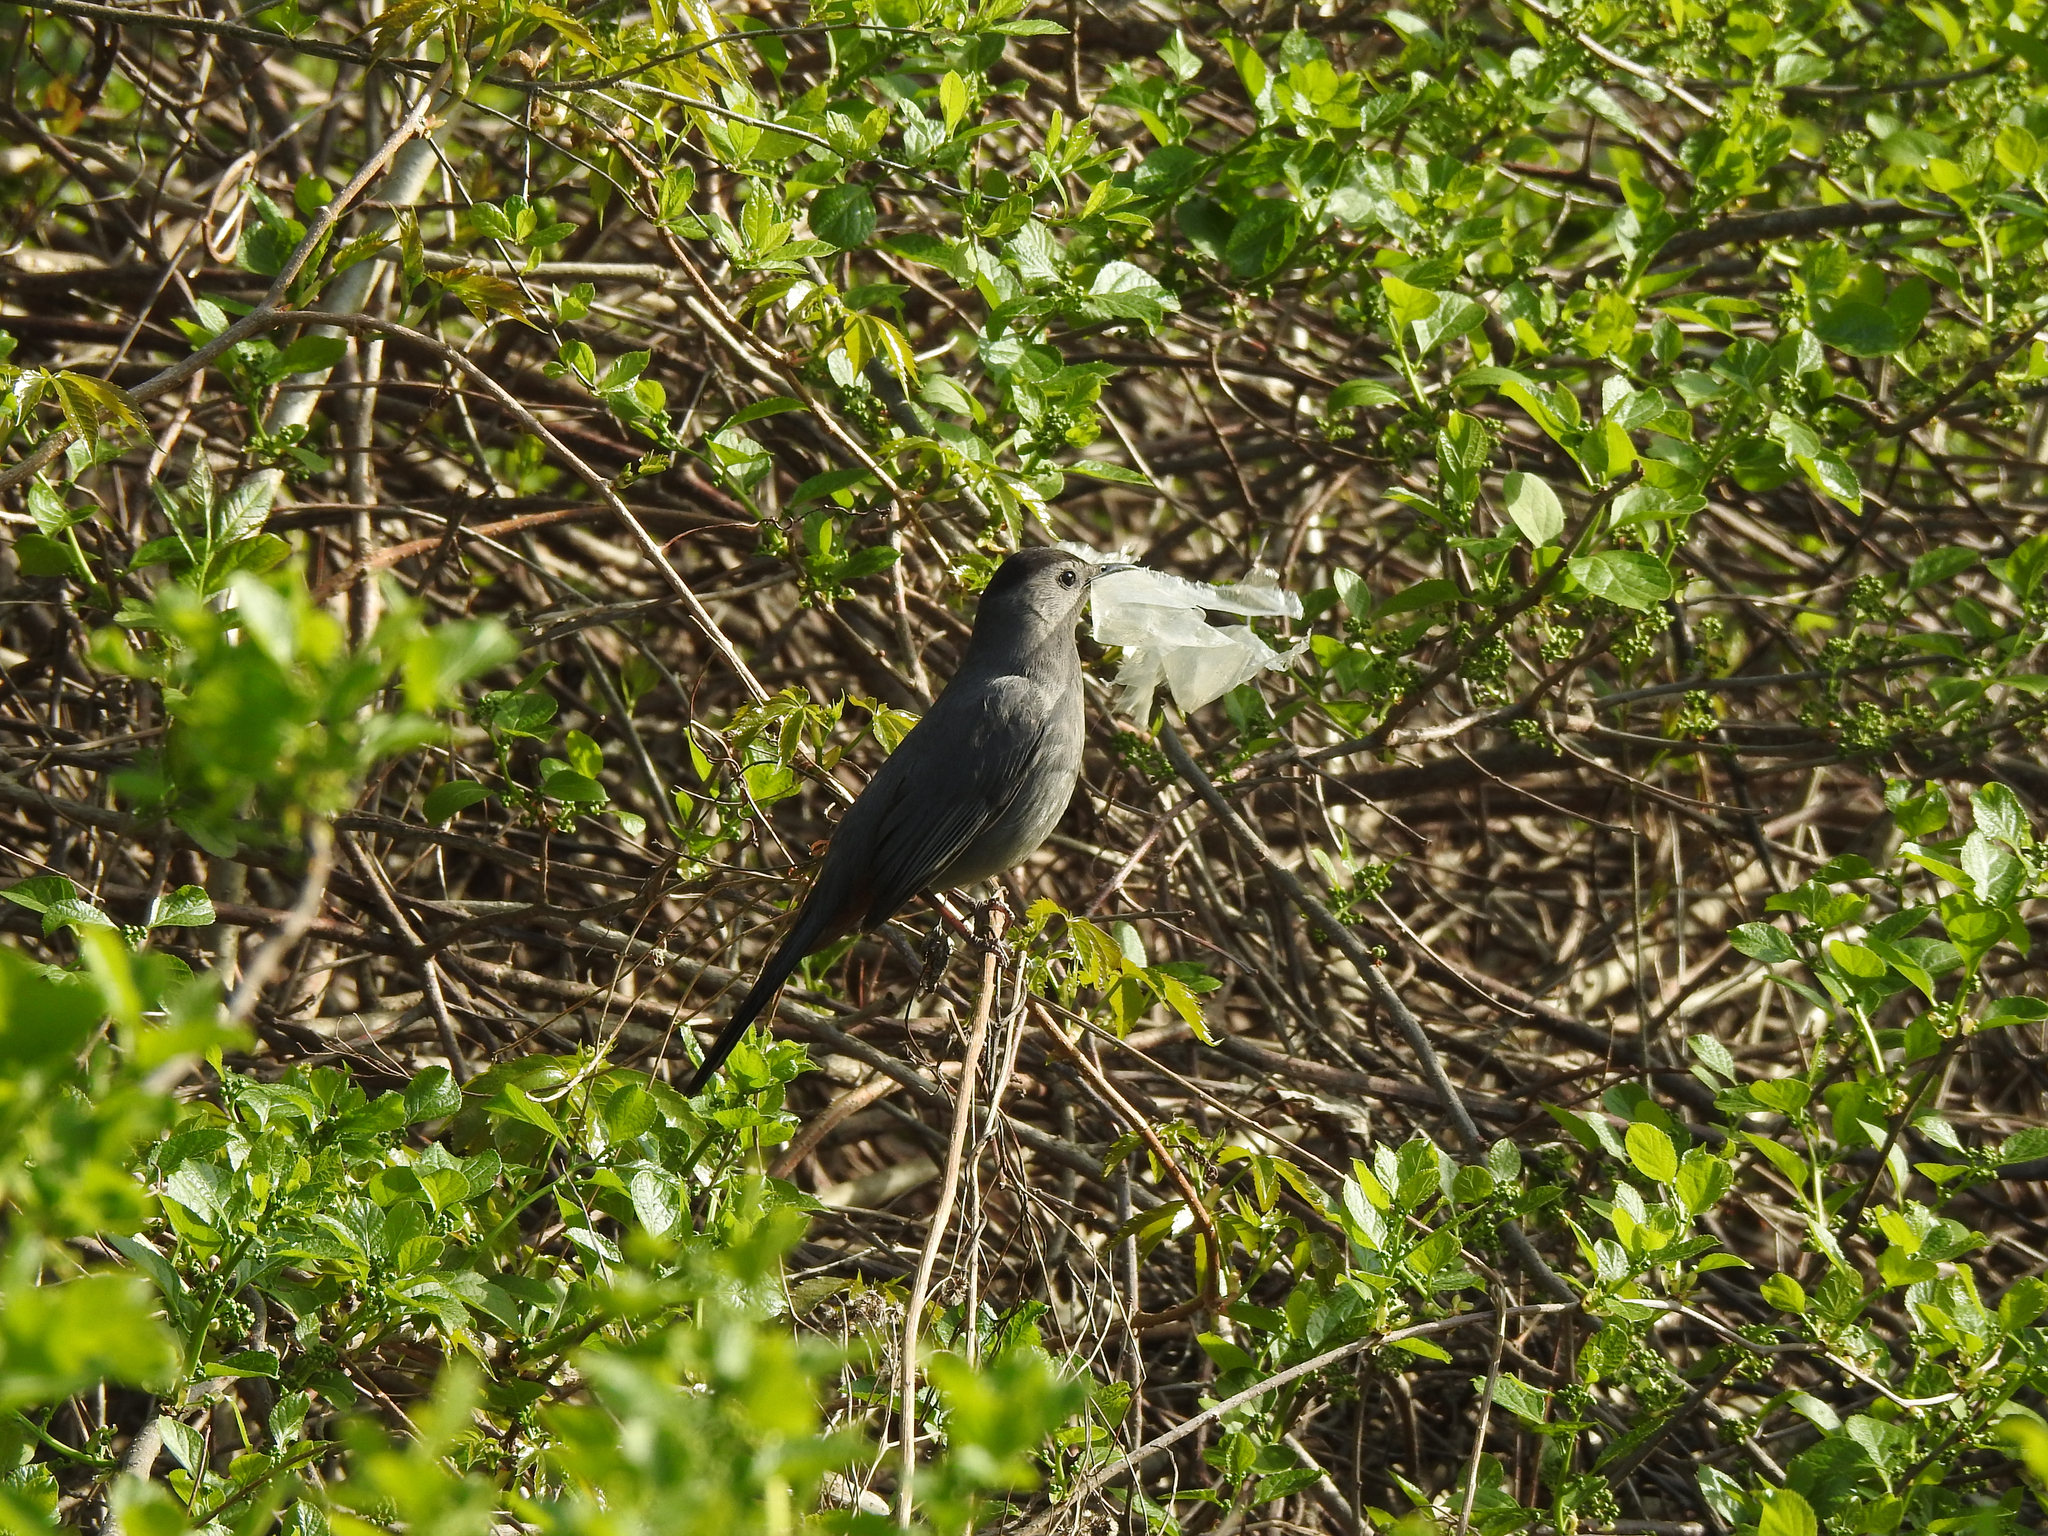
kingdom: Animalia
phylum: Chordata
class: Aves
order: Passeriformes
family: Mimidae
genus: Dumetella
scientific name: Dumetella carolinensis
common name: Gray catbird
